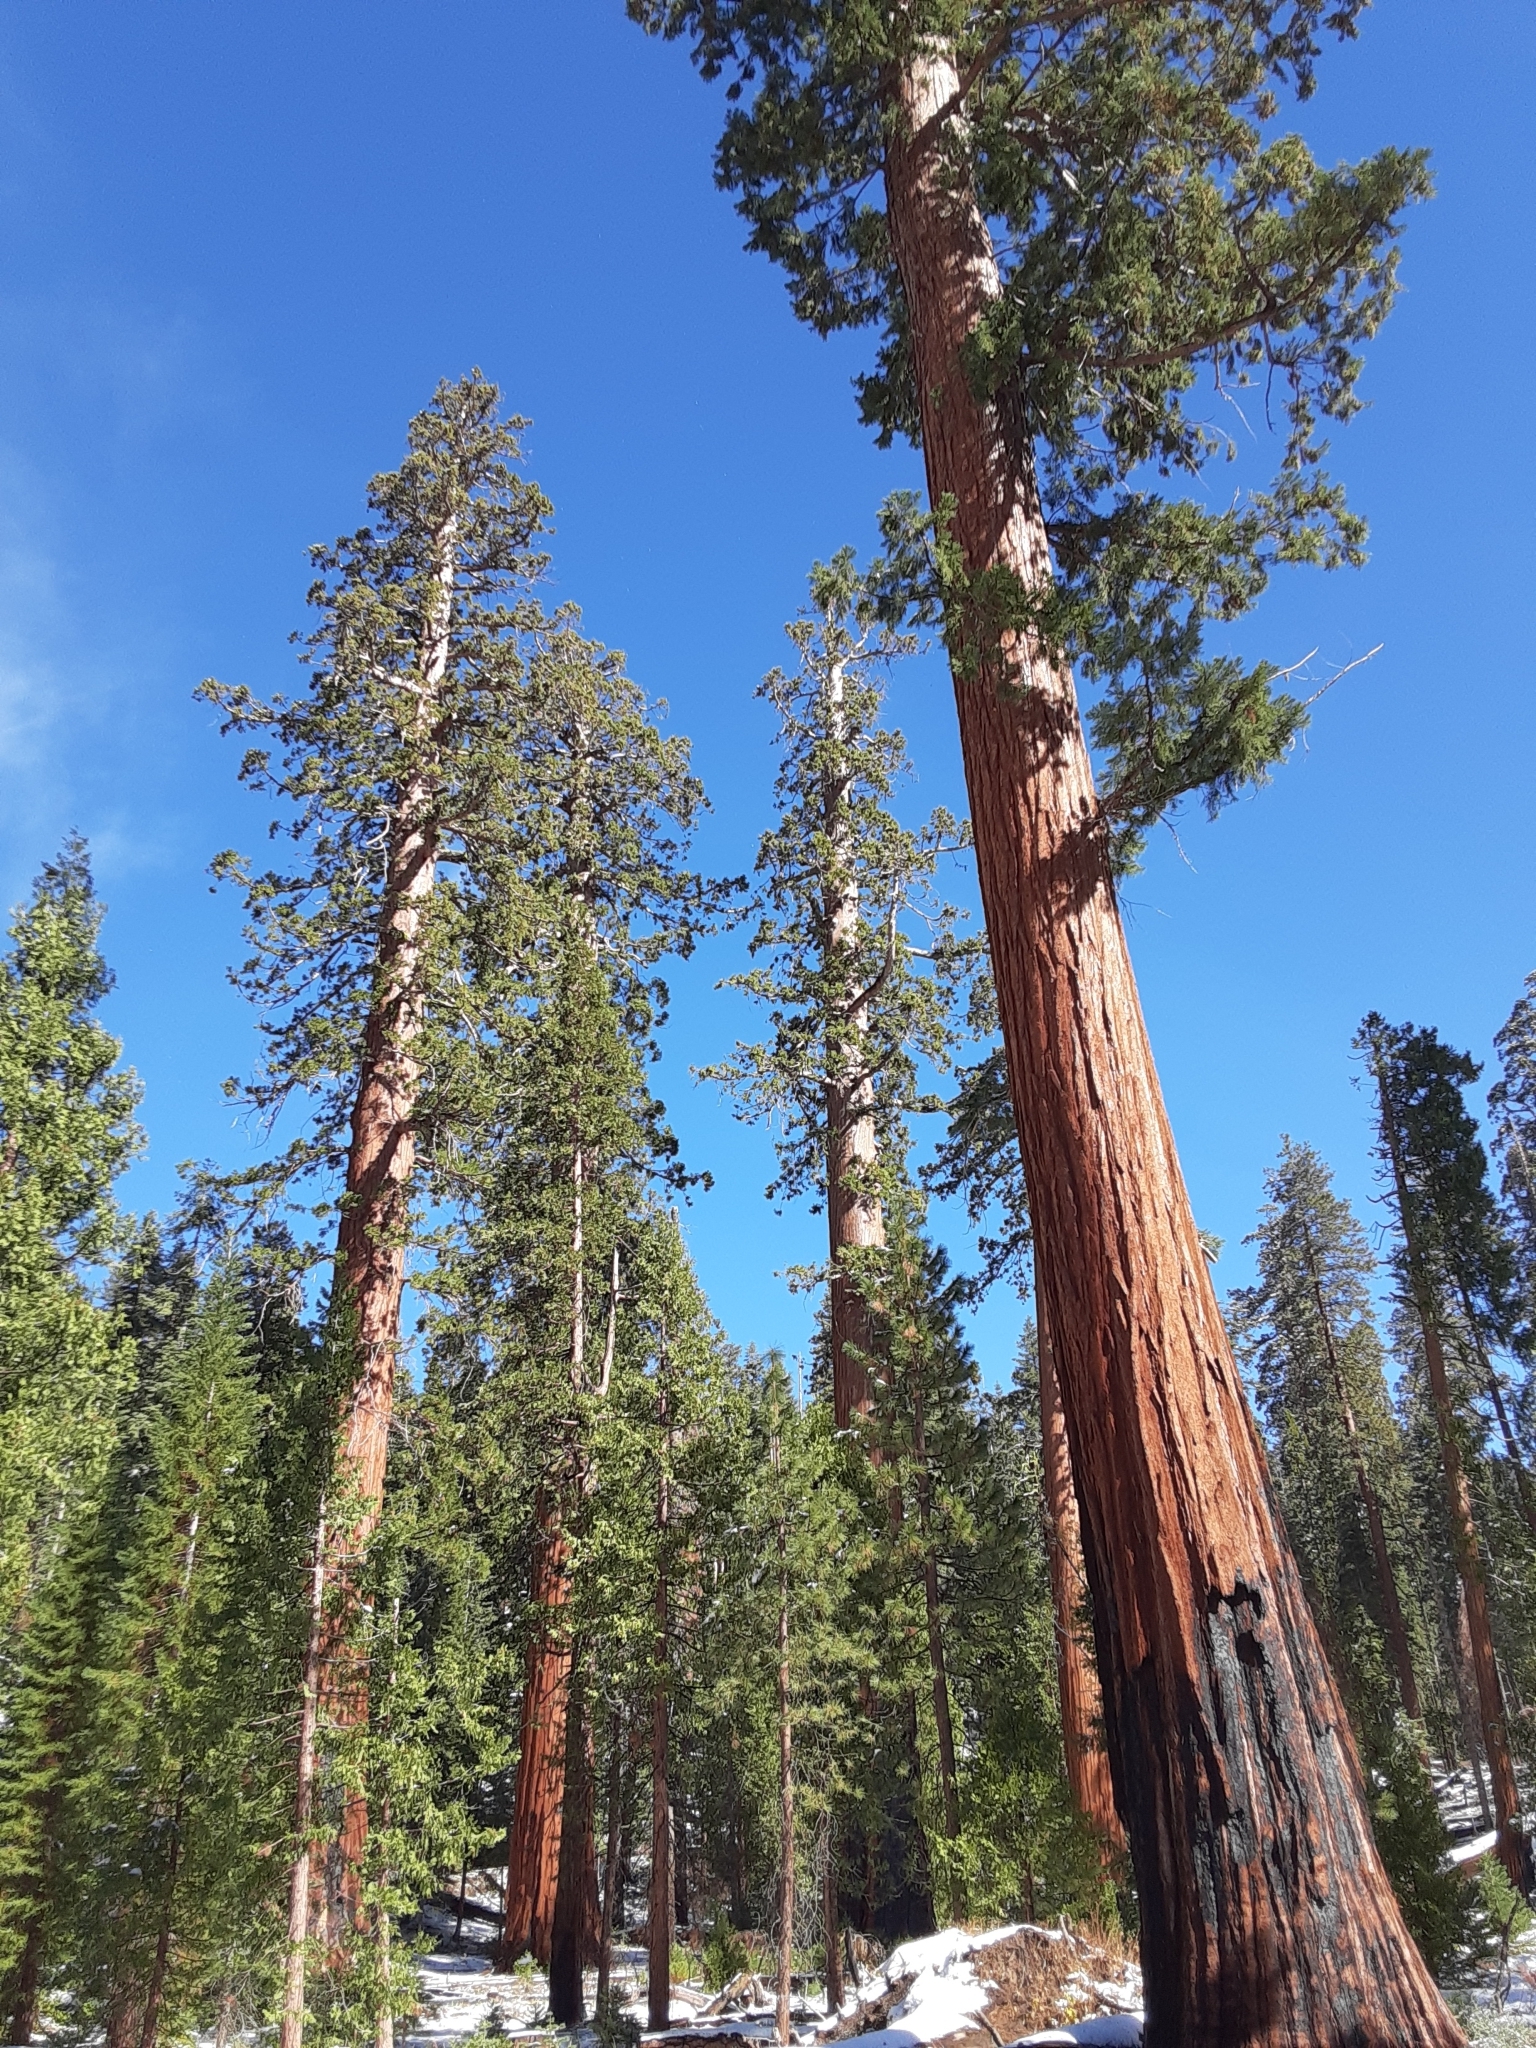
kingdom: Plantae
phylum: Tracheophyta
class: Pinopsida
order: Pinales
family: Cupressaceae
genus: Sequoiadendron
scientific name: Sequoiadendron giganteum
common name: Wellingtonia
